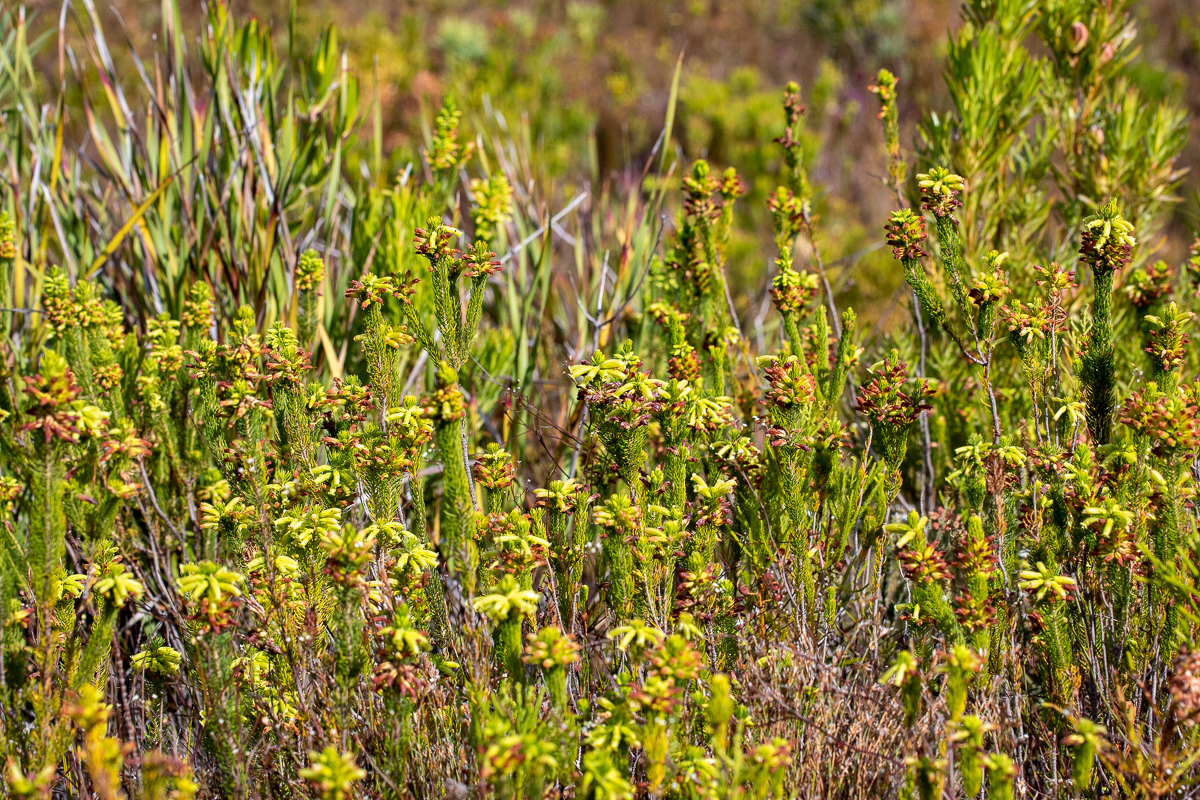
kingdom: Plantae
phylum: Tracheophyta
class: Magnoliopsida
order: Ericales
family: Ericaceae
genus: Erica
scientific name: Erica viscaria
